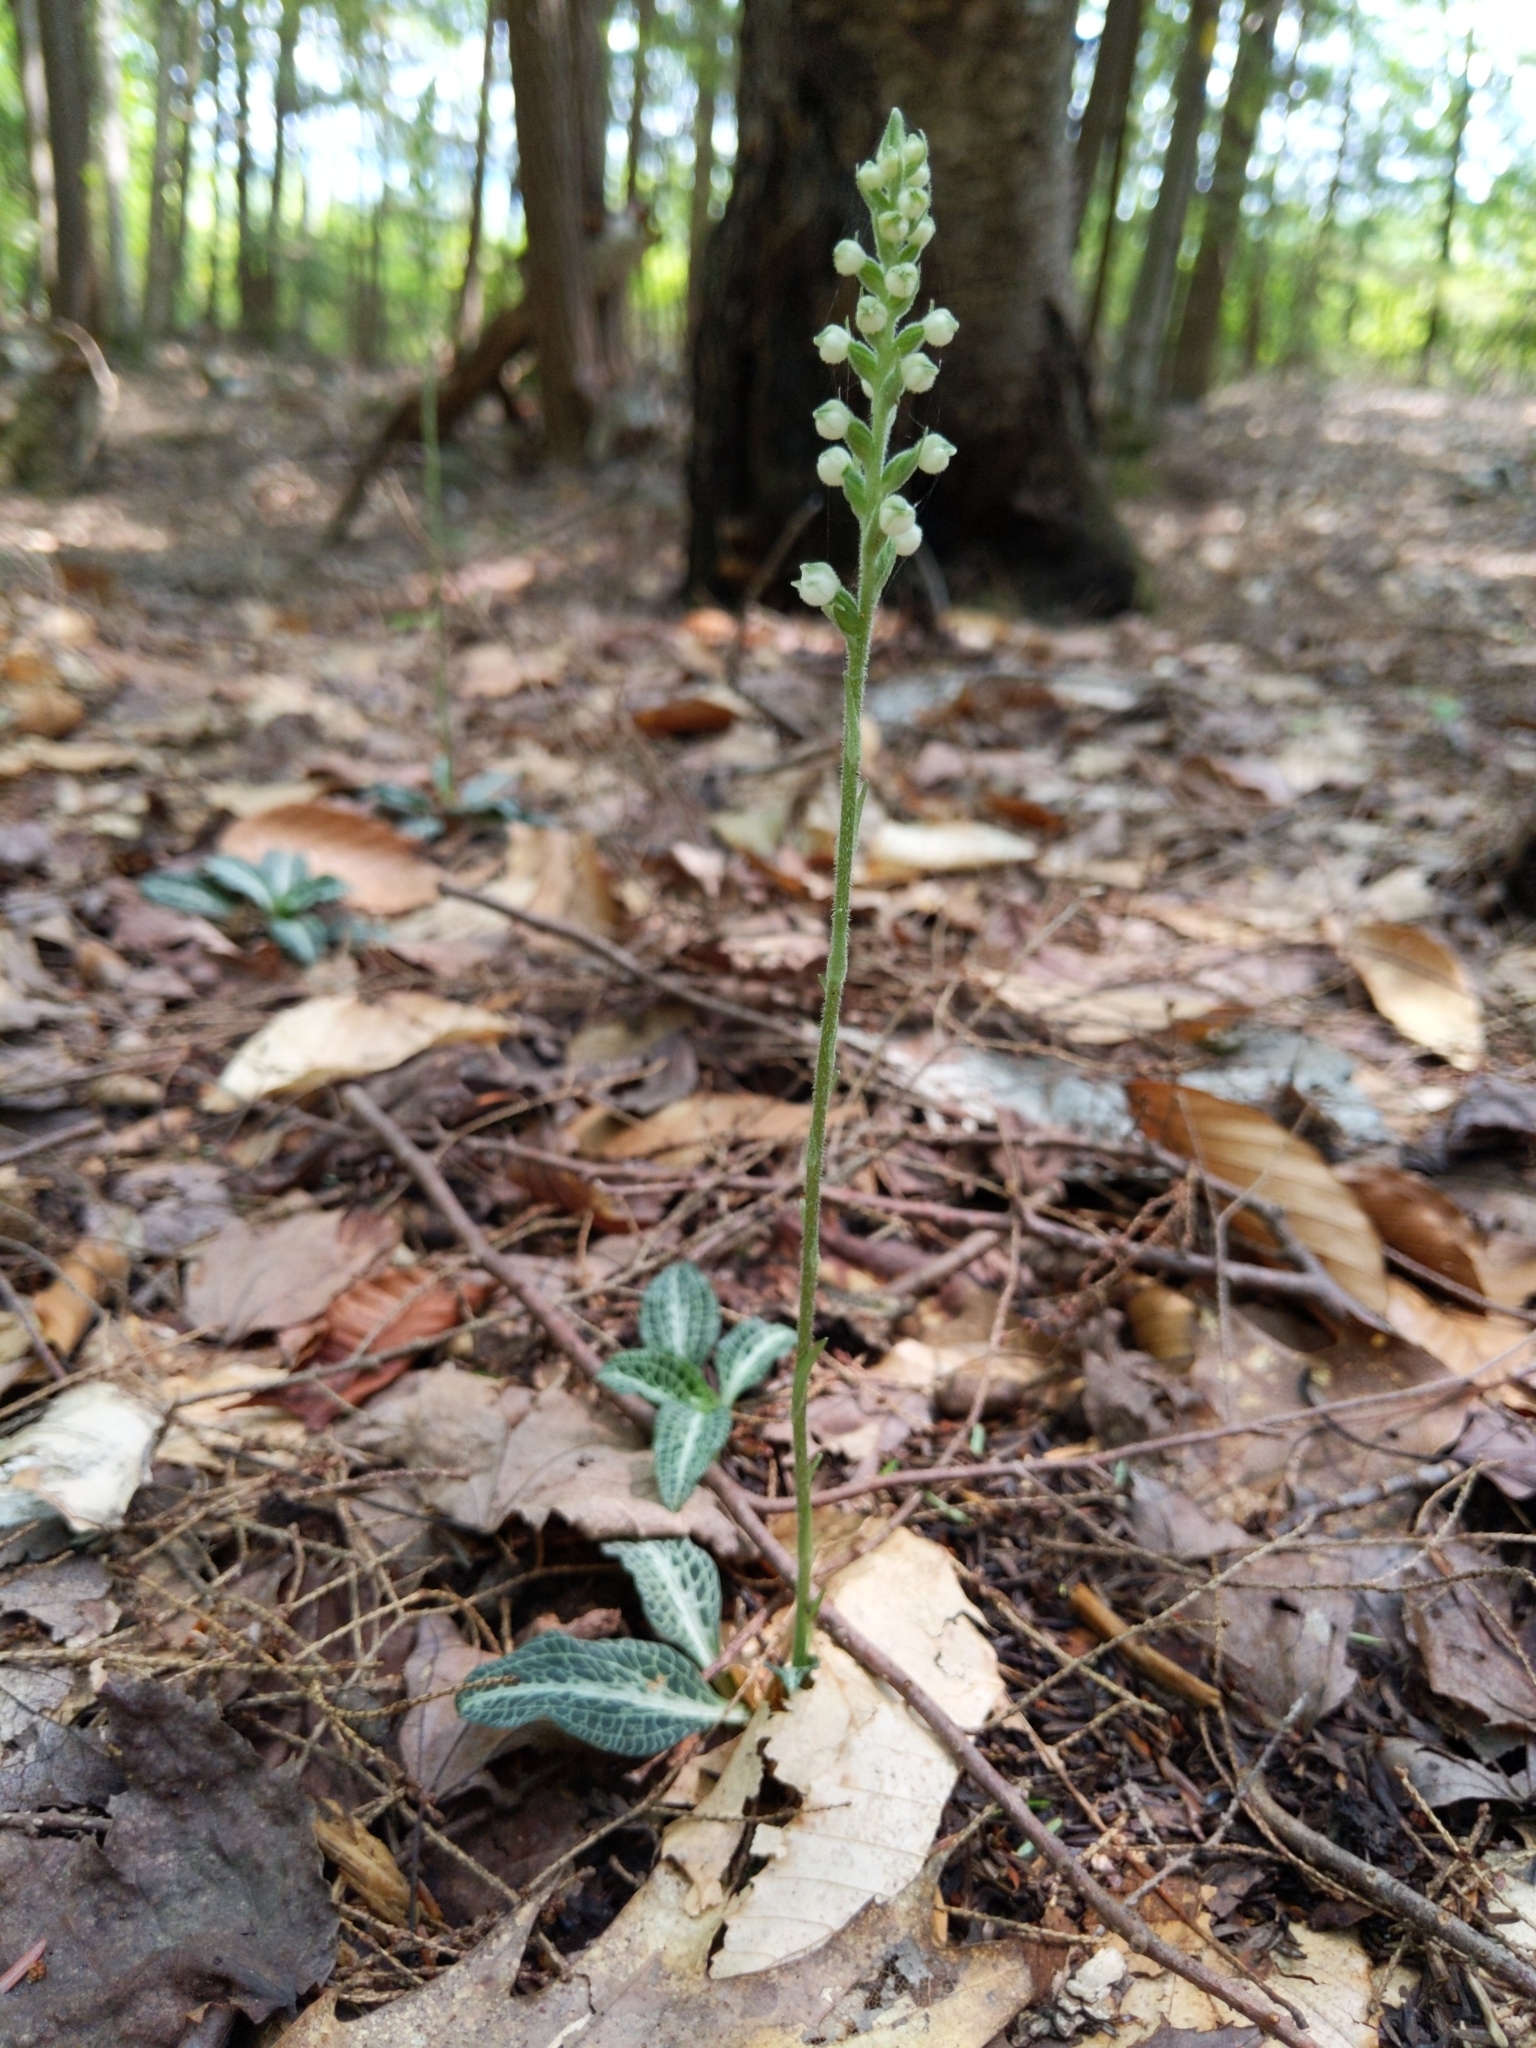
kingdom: Plantae
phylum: Tracheophyta
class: Liliopsida
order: Asparagales
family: Orchidaceae
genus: Goodyera
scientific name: Goodyera pubescens
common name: Downy rattlesnake-plantain
